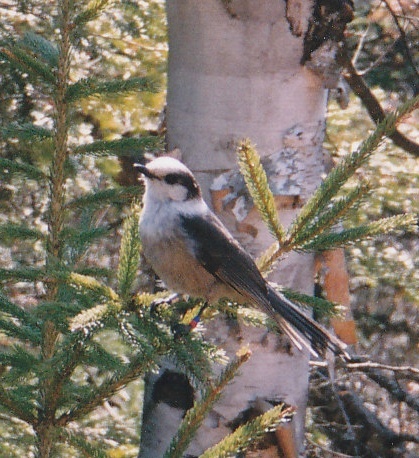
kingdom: Animalia
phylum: Chordata
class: Aves
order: Passeriformes
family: Corvidae
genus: Perisoreus
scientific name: Perisoreus canadensis
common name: Gray jay
